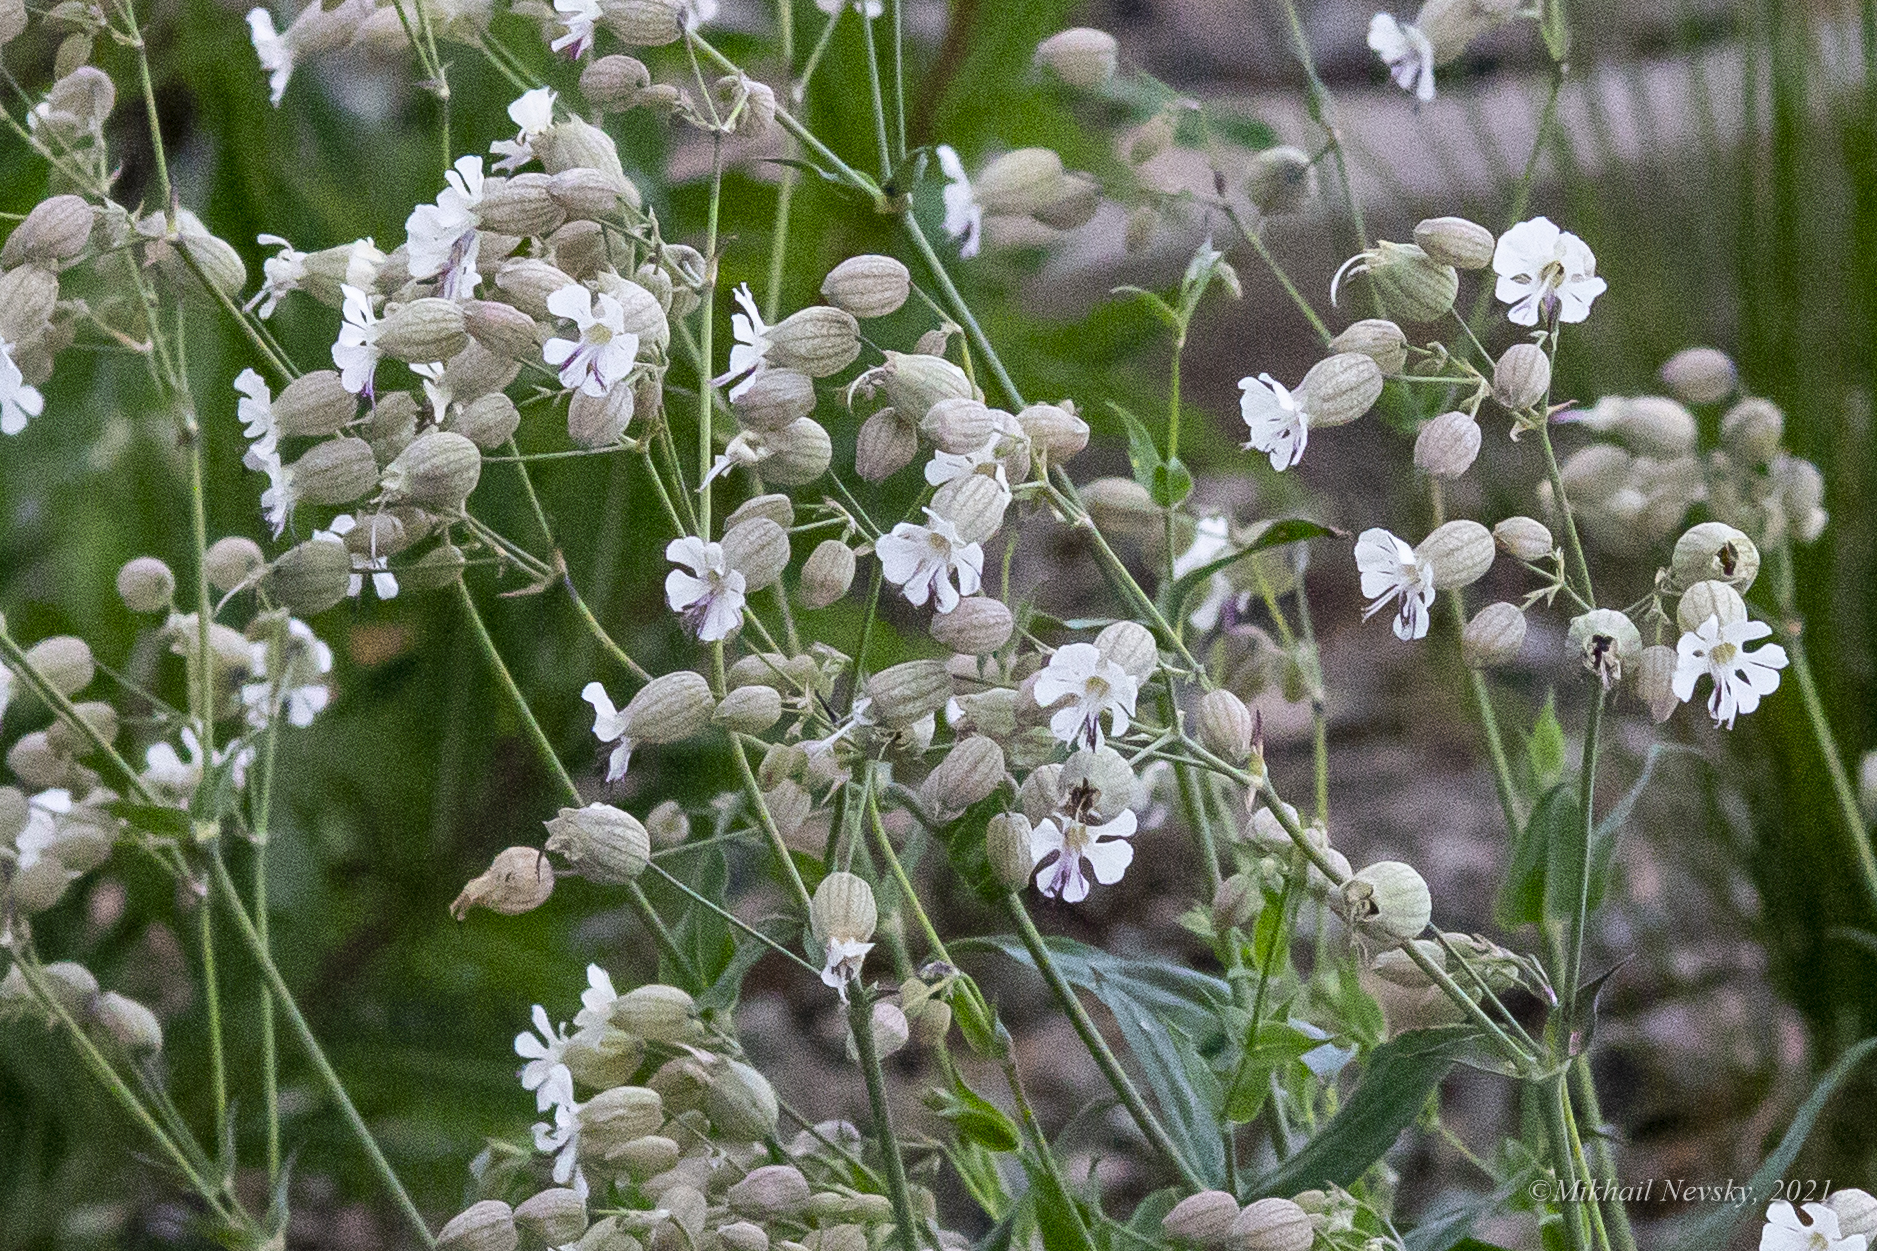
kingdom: Plantae
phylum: Tracheophyta
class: Magnoliopsida
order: Caryophyllales
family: Caryophyllaceae
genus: Silene
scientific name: Silene vulgaris
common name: Bladder campion
